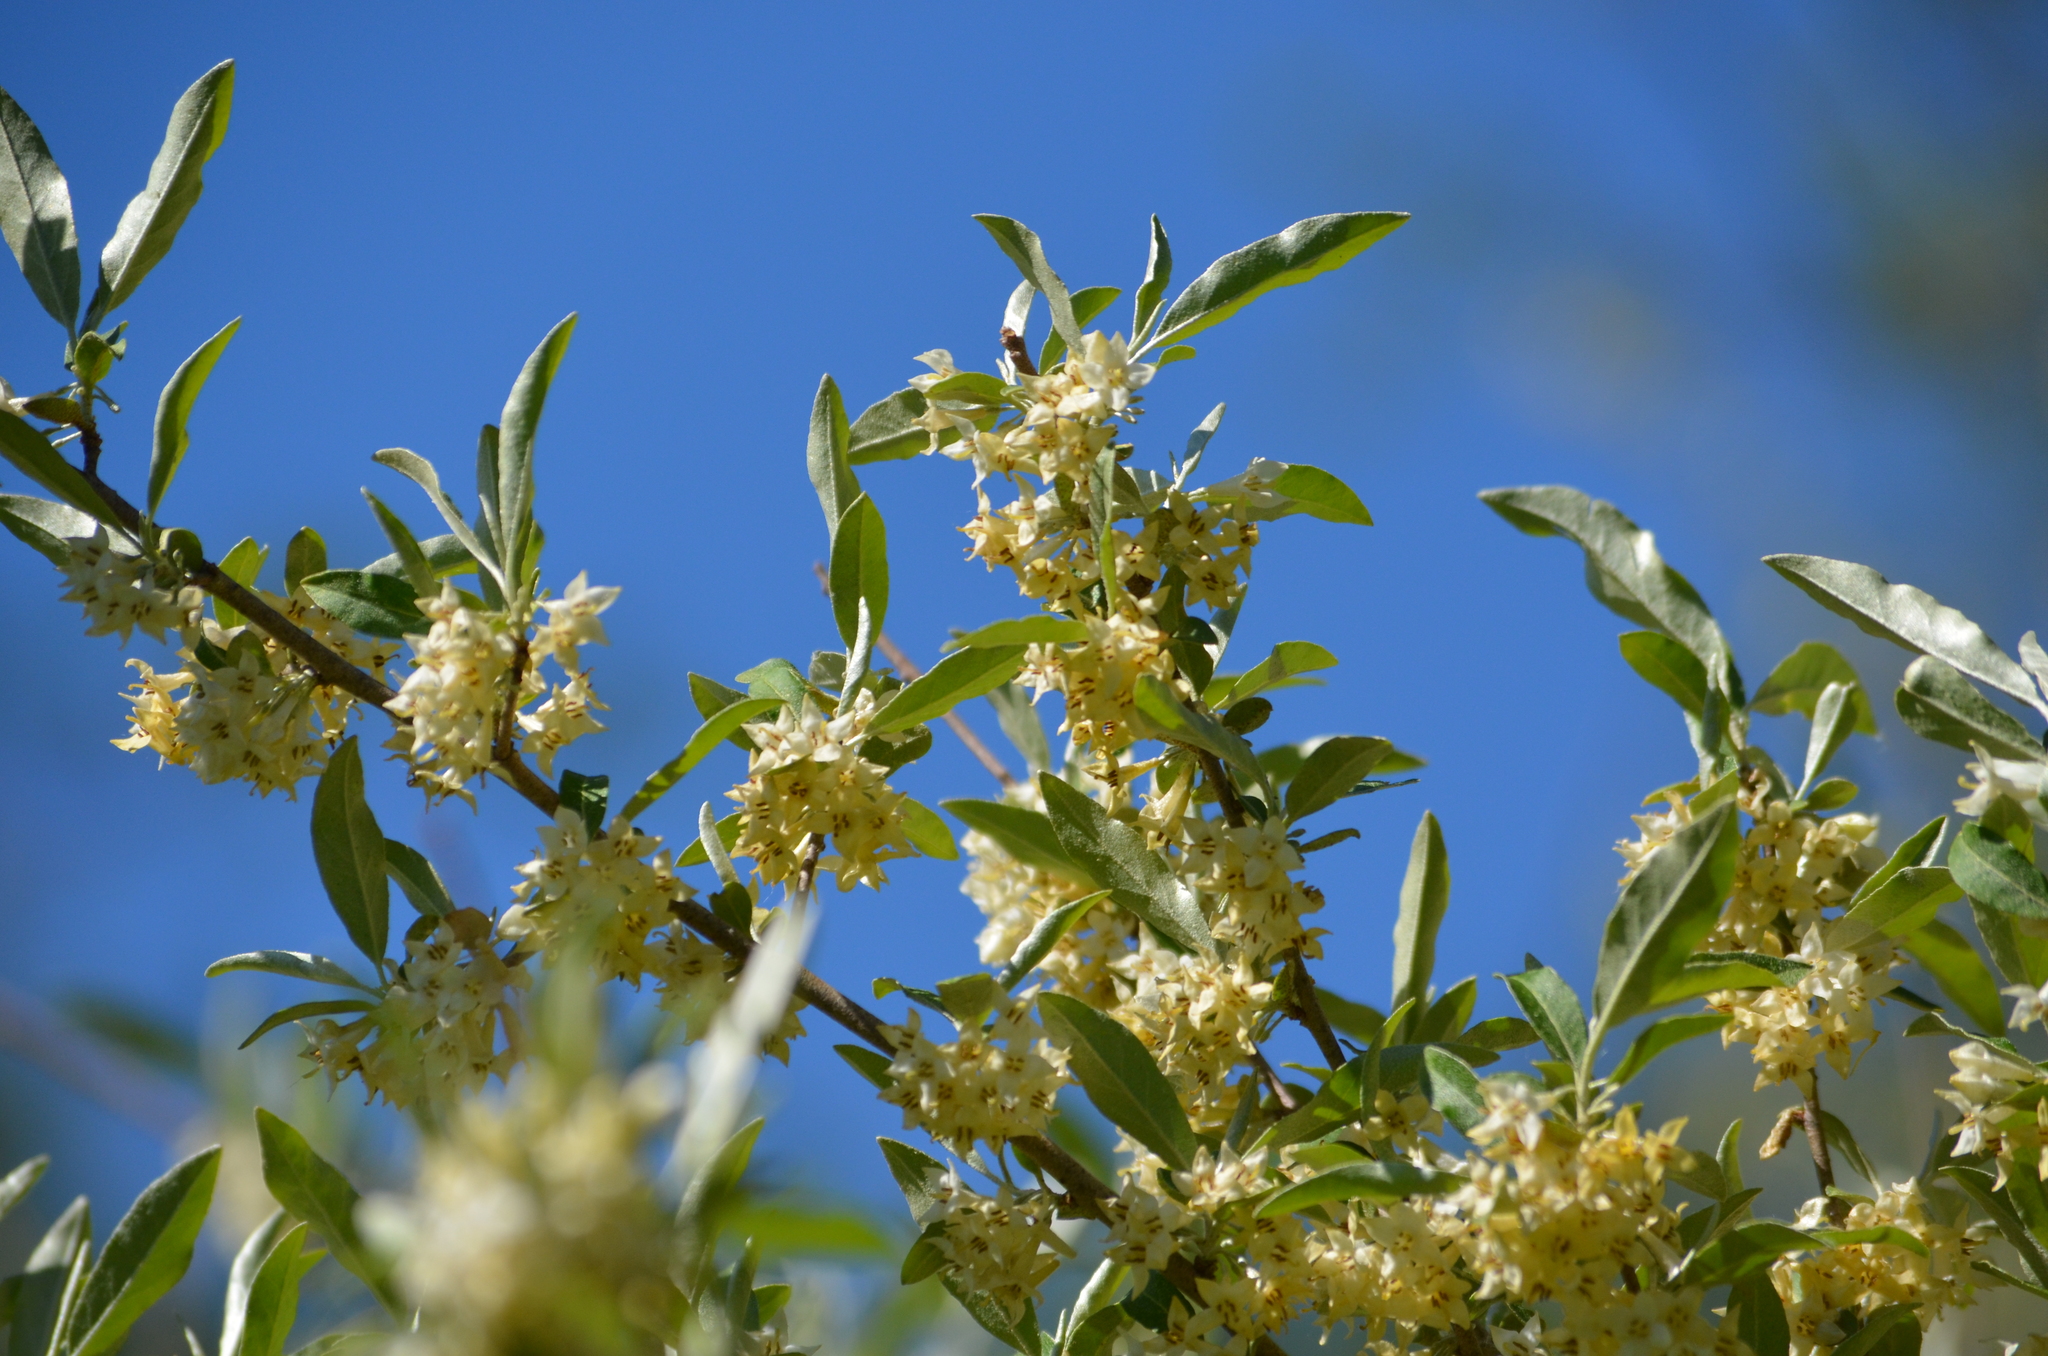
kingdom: Plantae
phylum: Tracheophyta
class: Magnoliopsida
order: Rosales
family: Elaeagnaceae
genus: Elaeagnus
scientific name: Elaeagnus umbellata
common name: Autumn olive
